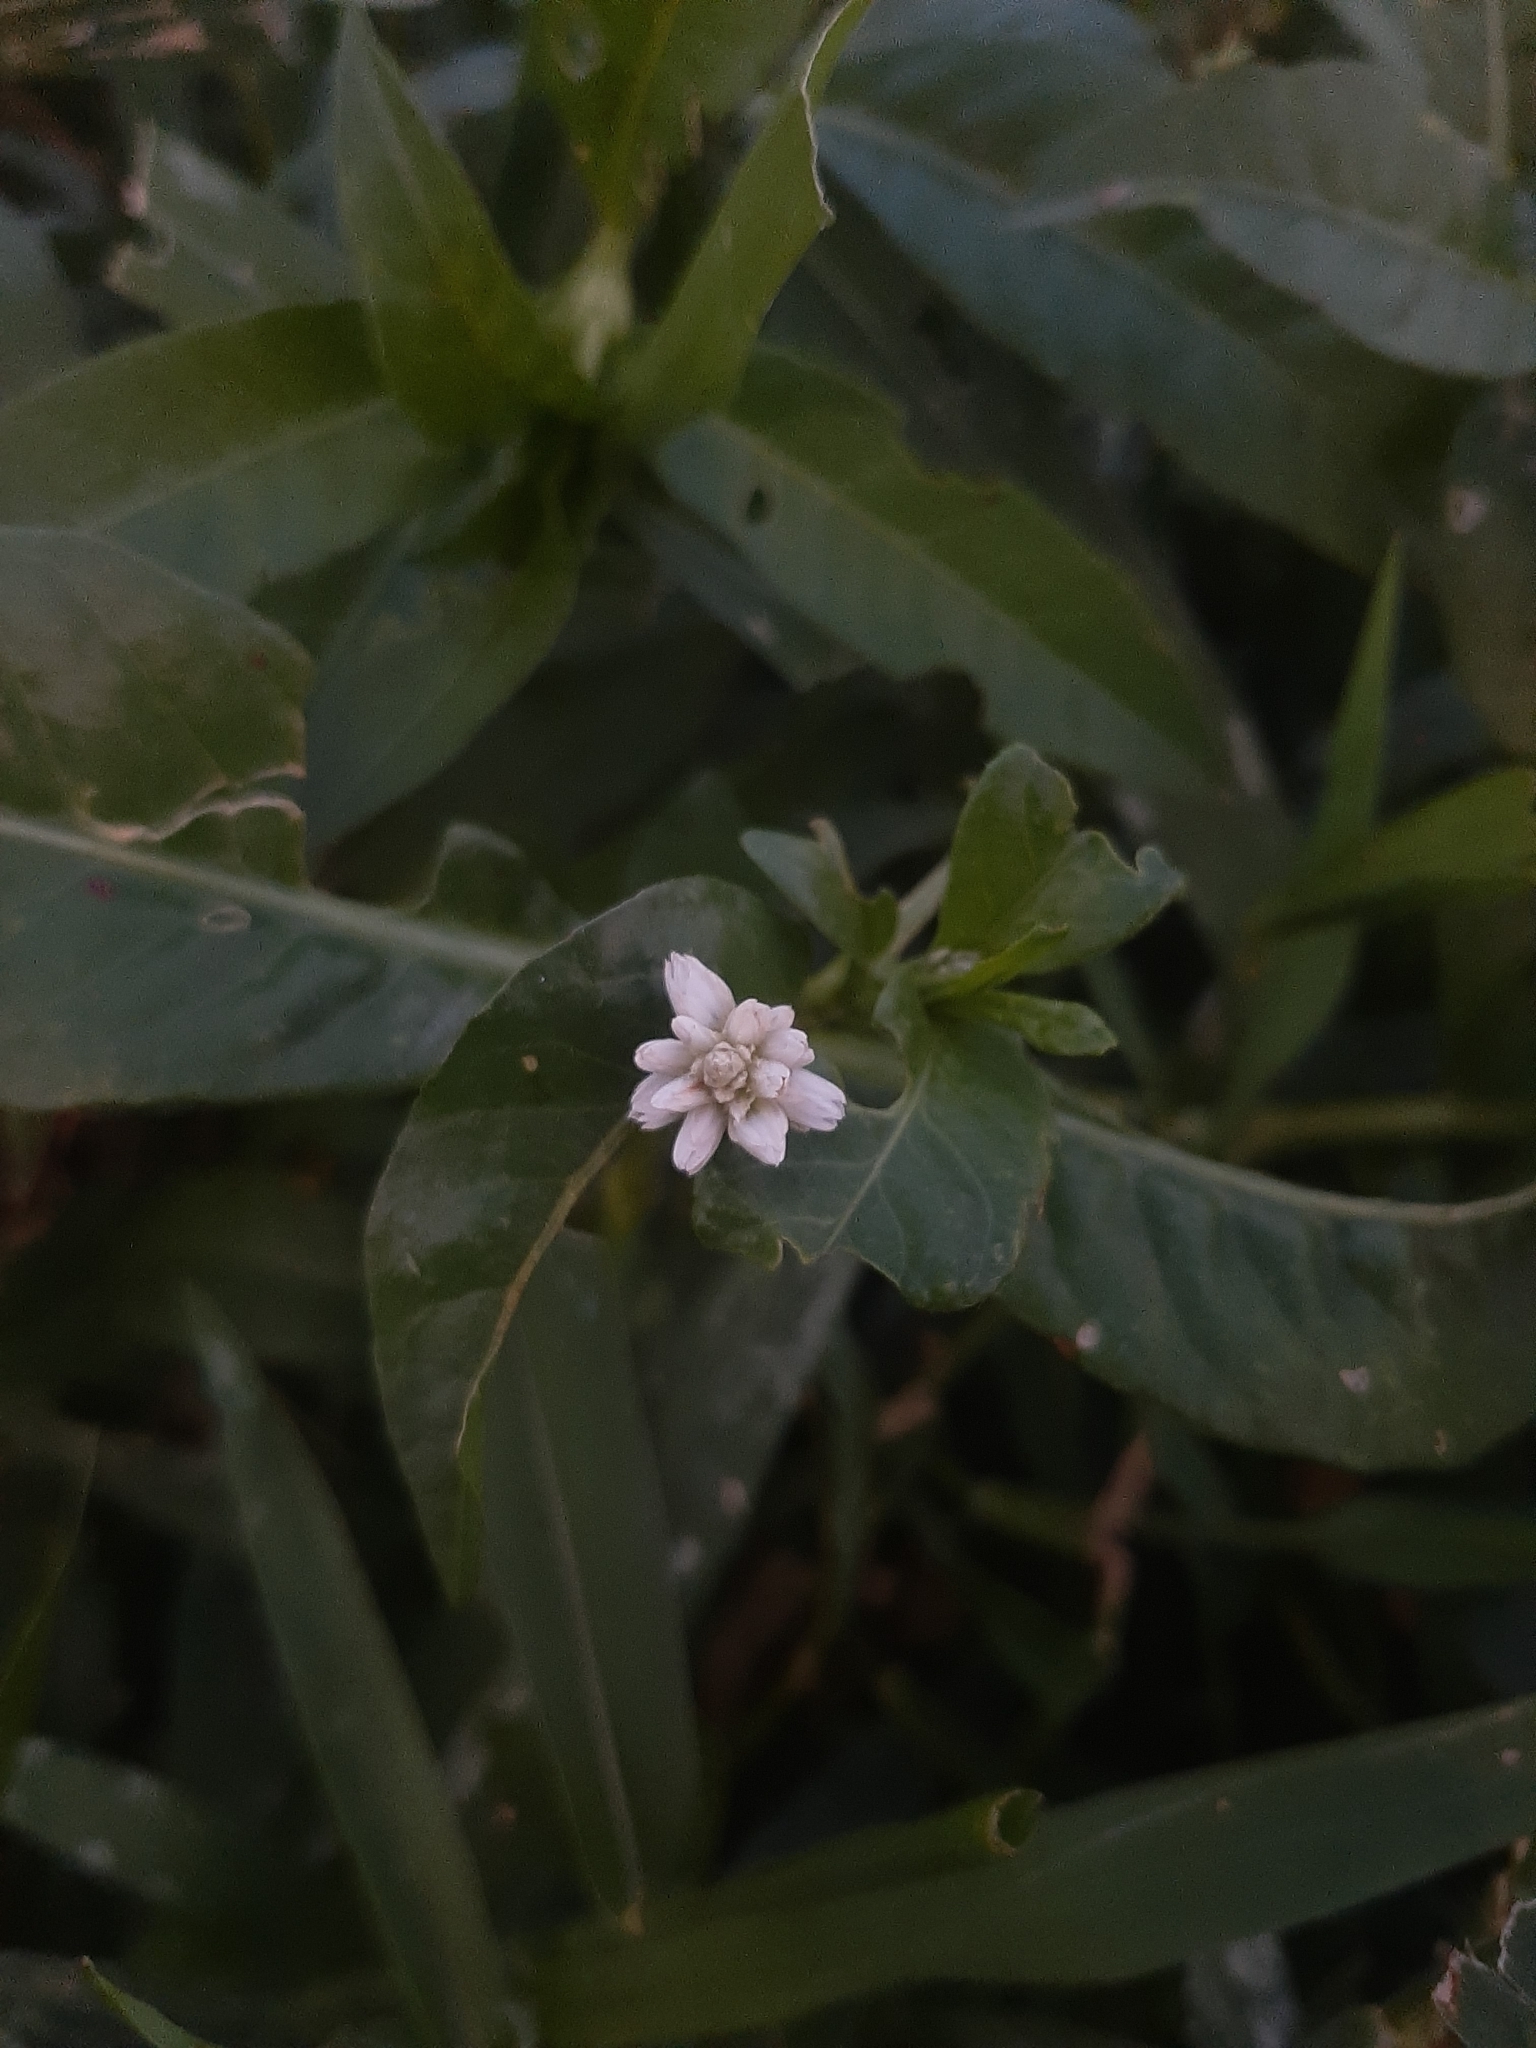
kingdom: Plantae
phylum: Tracheophyta
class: Magnoliopsida
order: Caryophyllales
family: Amaranthaceae
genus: Alternanthera
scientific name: Alternanthera philoxeroides
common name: Alligatorweed
